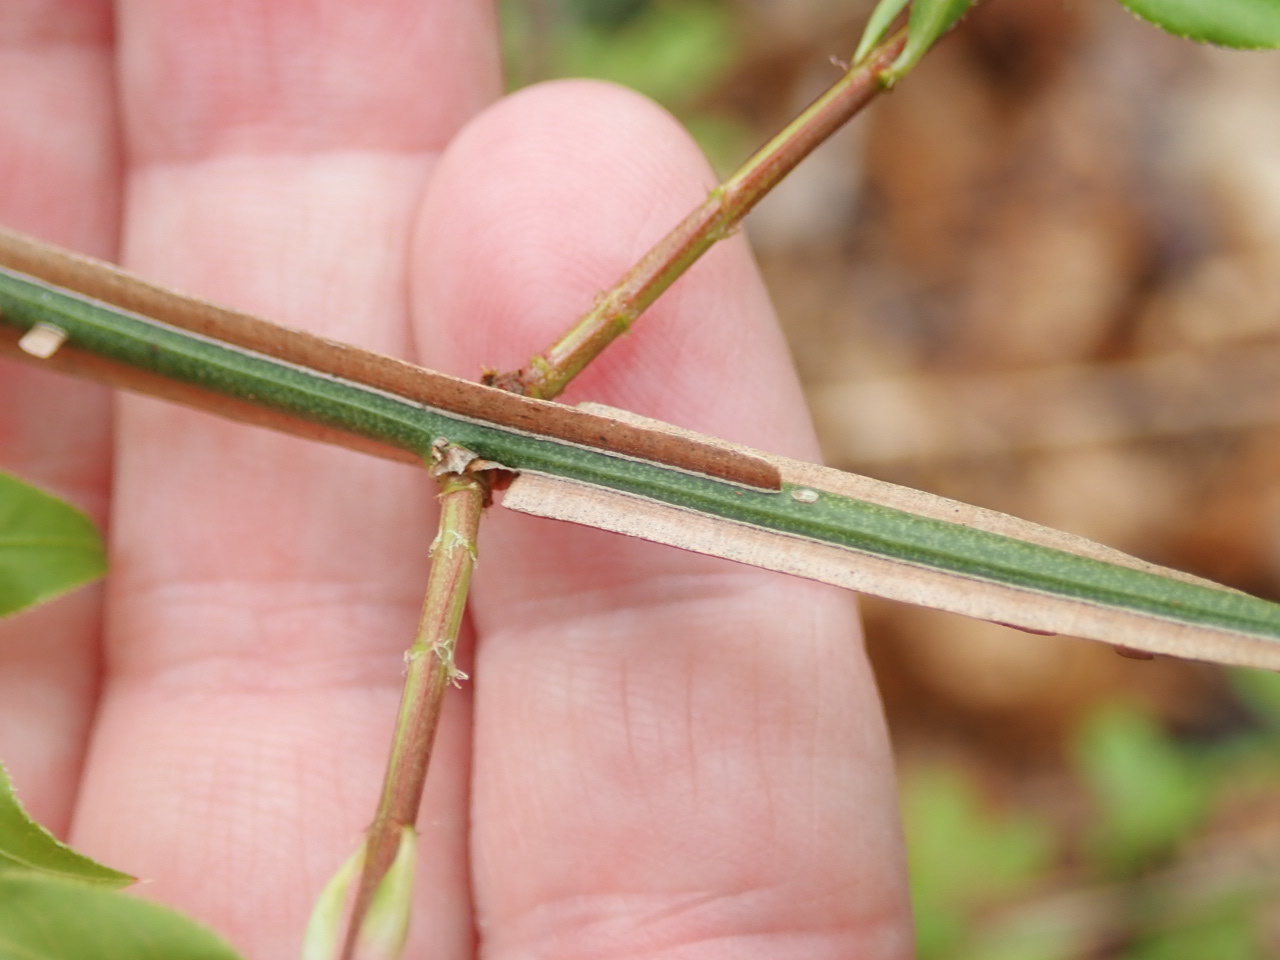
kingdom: Plantae
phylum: Tracheophyta
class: Magnoliopsida
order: Celastrales
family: Celastraceae
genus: Euonymus
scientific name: Euonymus alatus
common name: Winged euonymus
